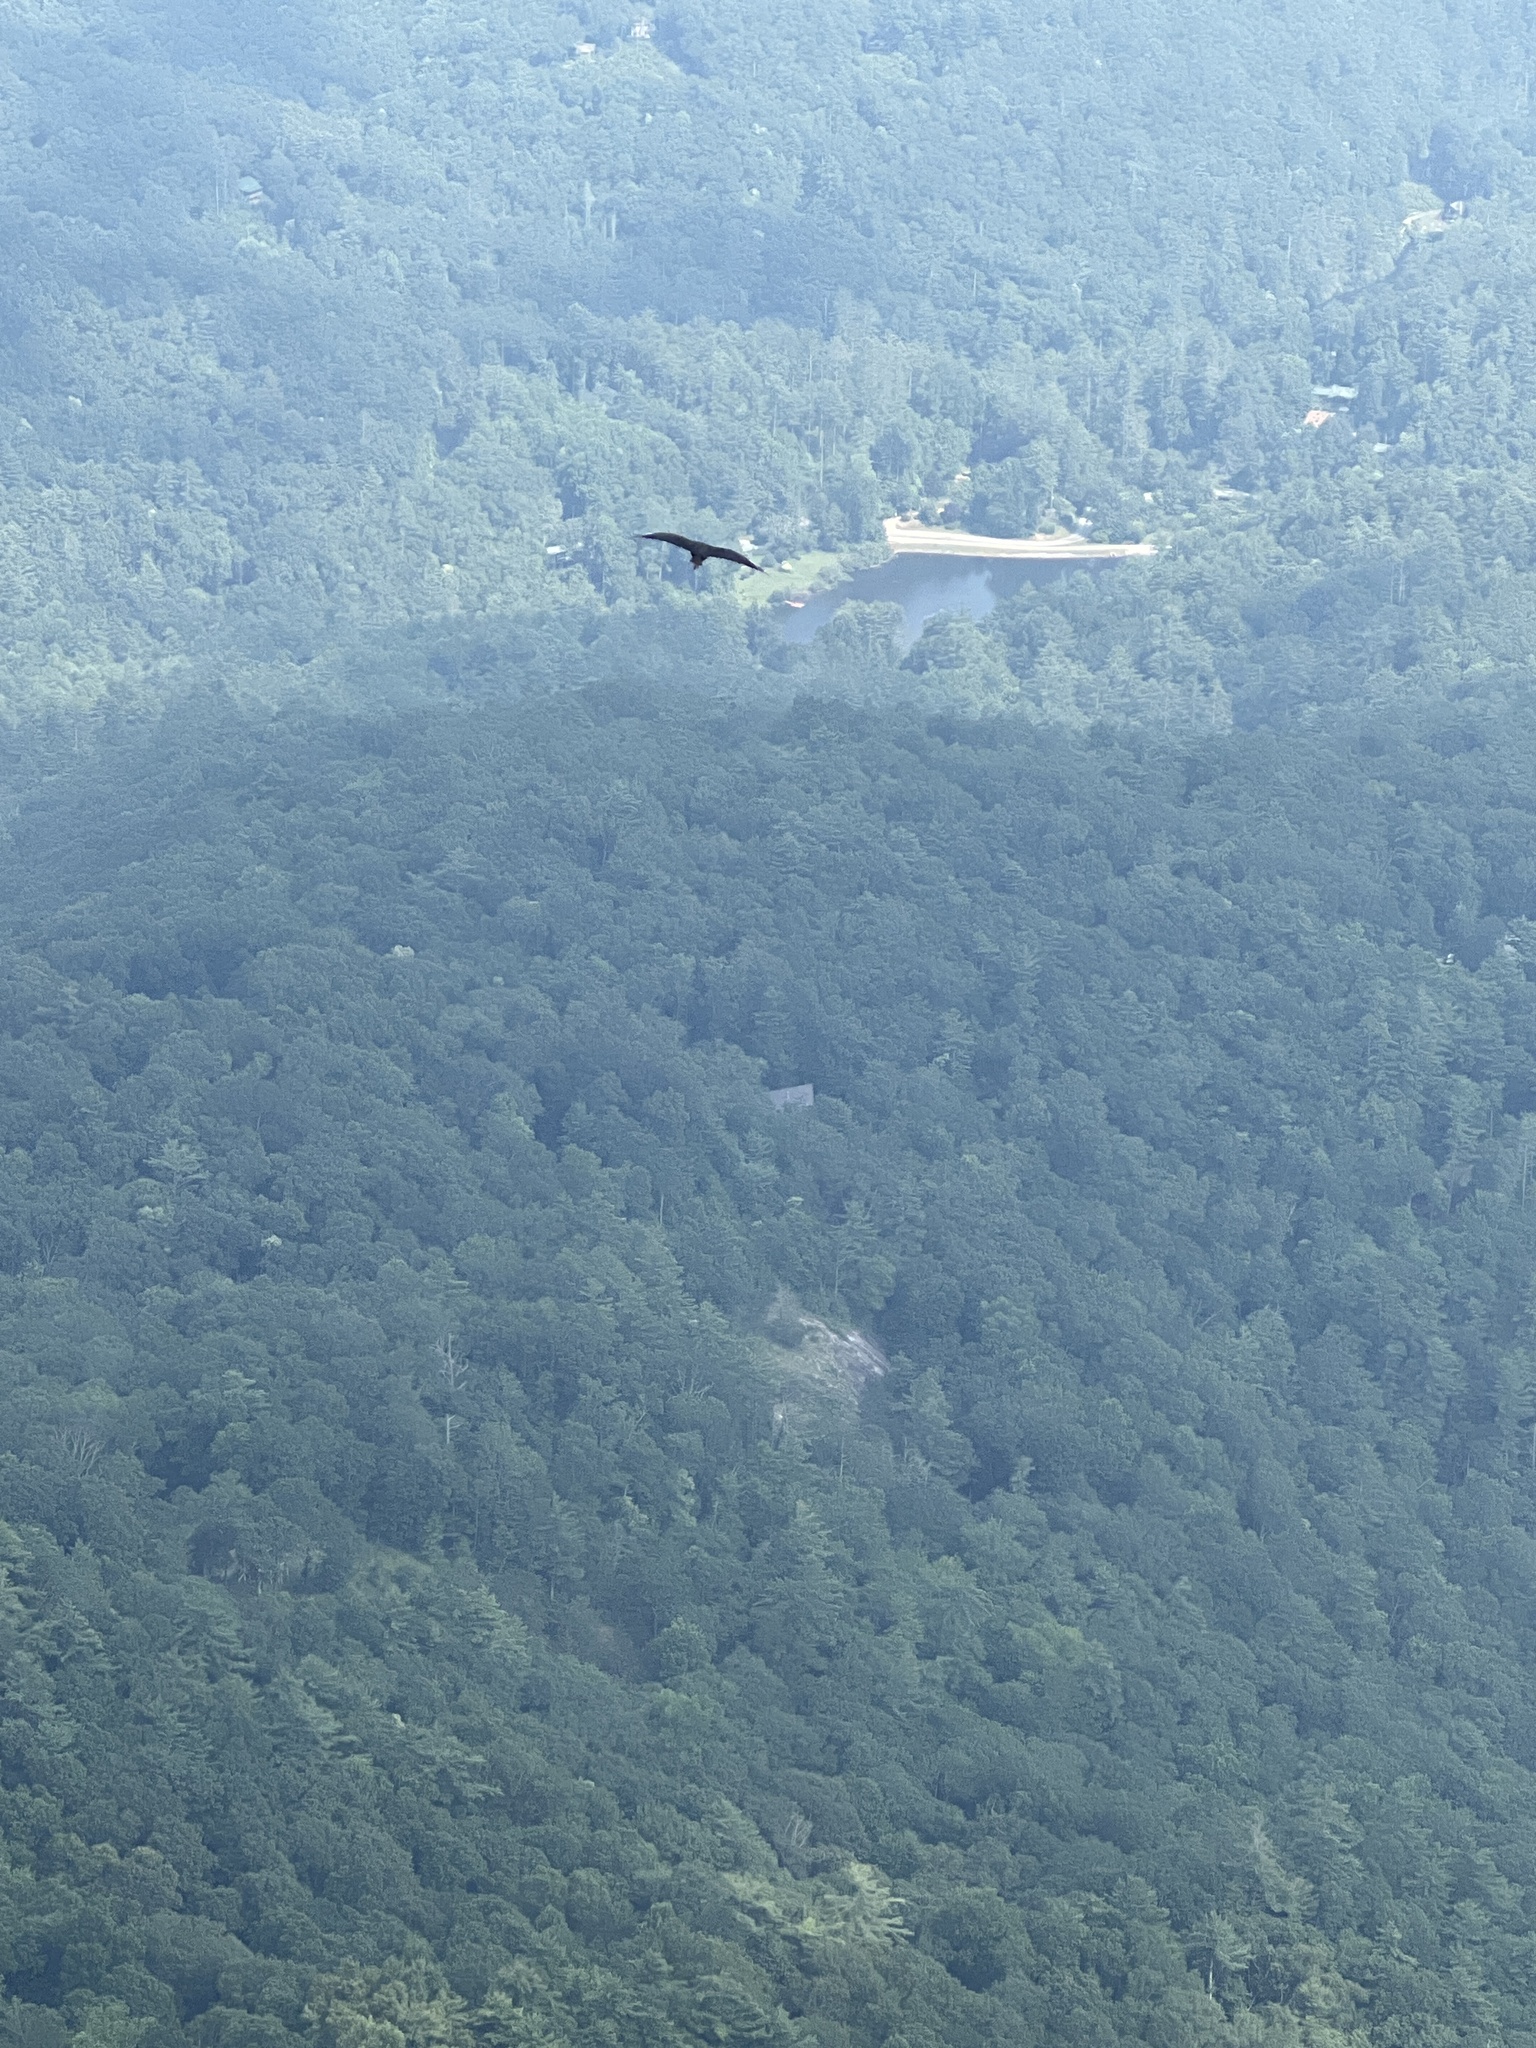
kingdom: Animalia
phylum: Chordata
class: Aves
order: Accipitriformes
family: Cathartidae
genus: Coragyps
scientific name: Coragyps atratus
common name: Black vulture
